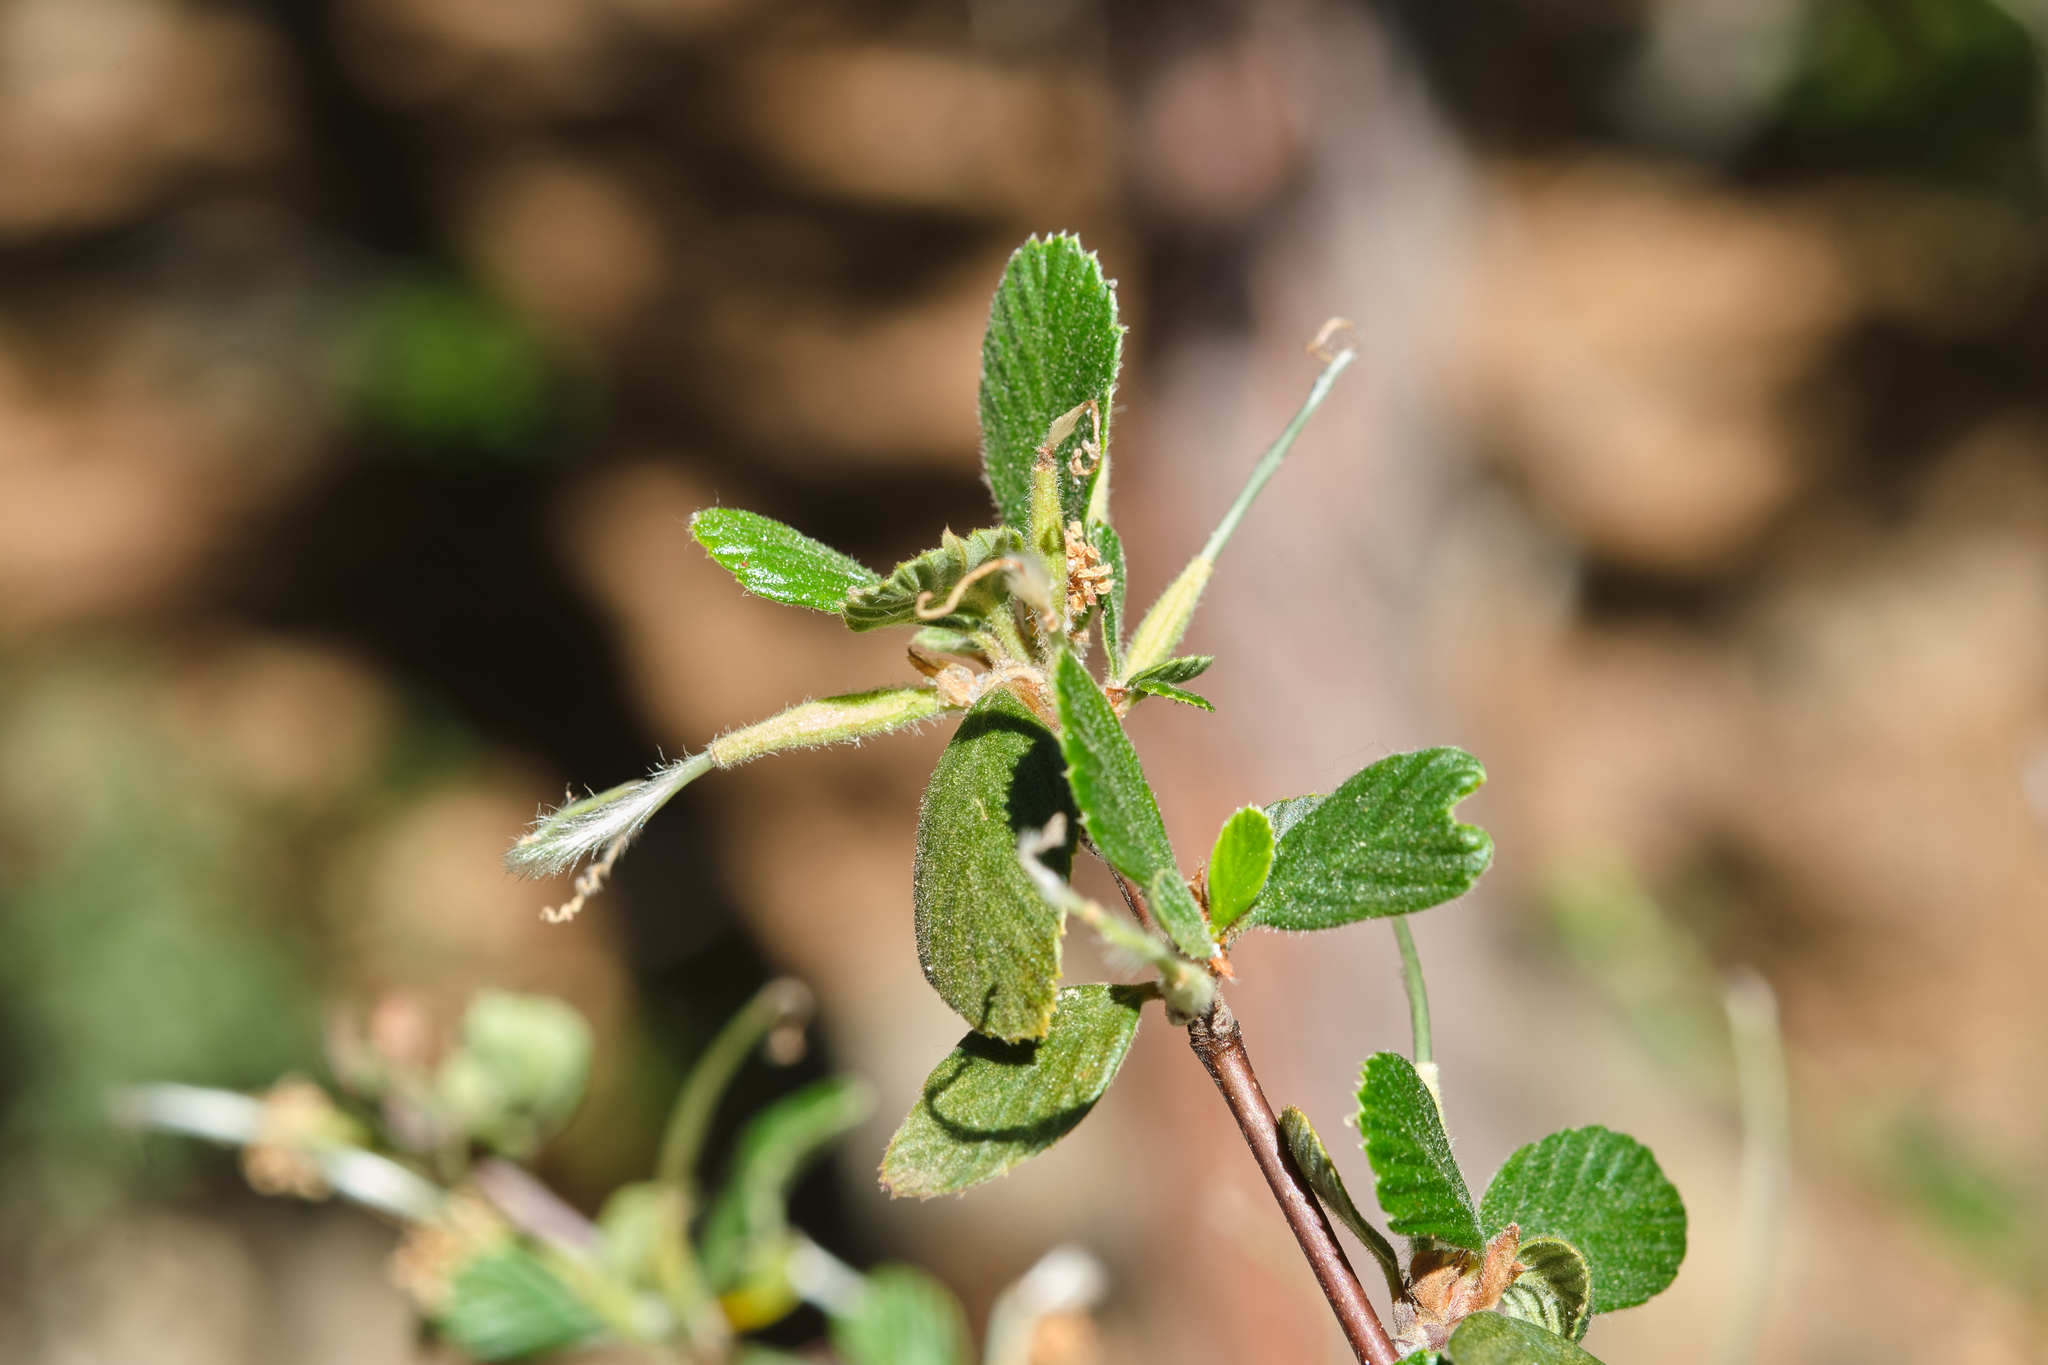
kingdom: Plantae
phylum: Tracheophyta
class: Magnoliopsida
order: Rosales
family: Rosaceae
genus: Cercocarpus
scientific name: Cercocarpus betuloides
